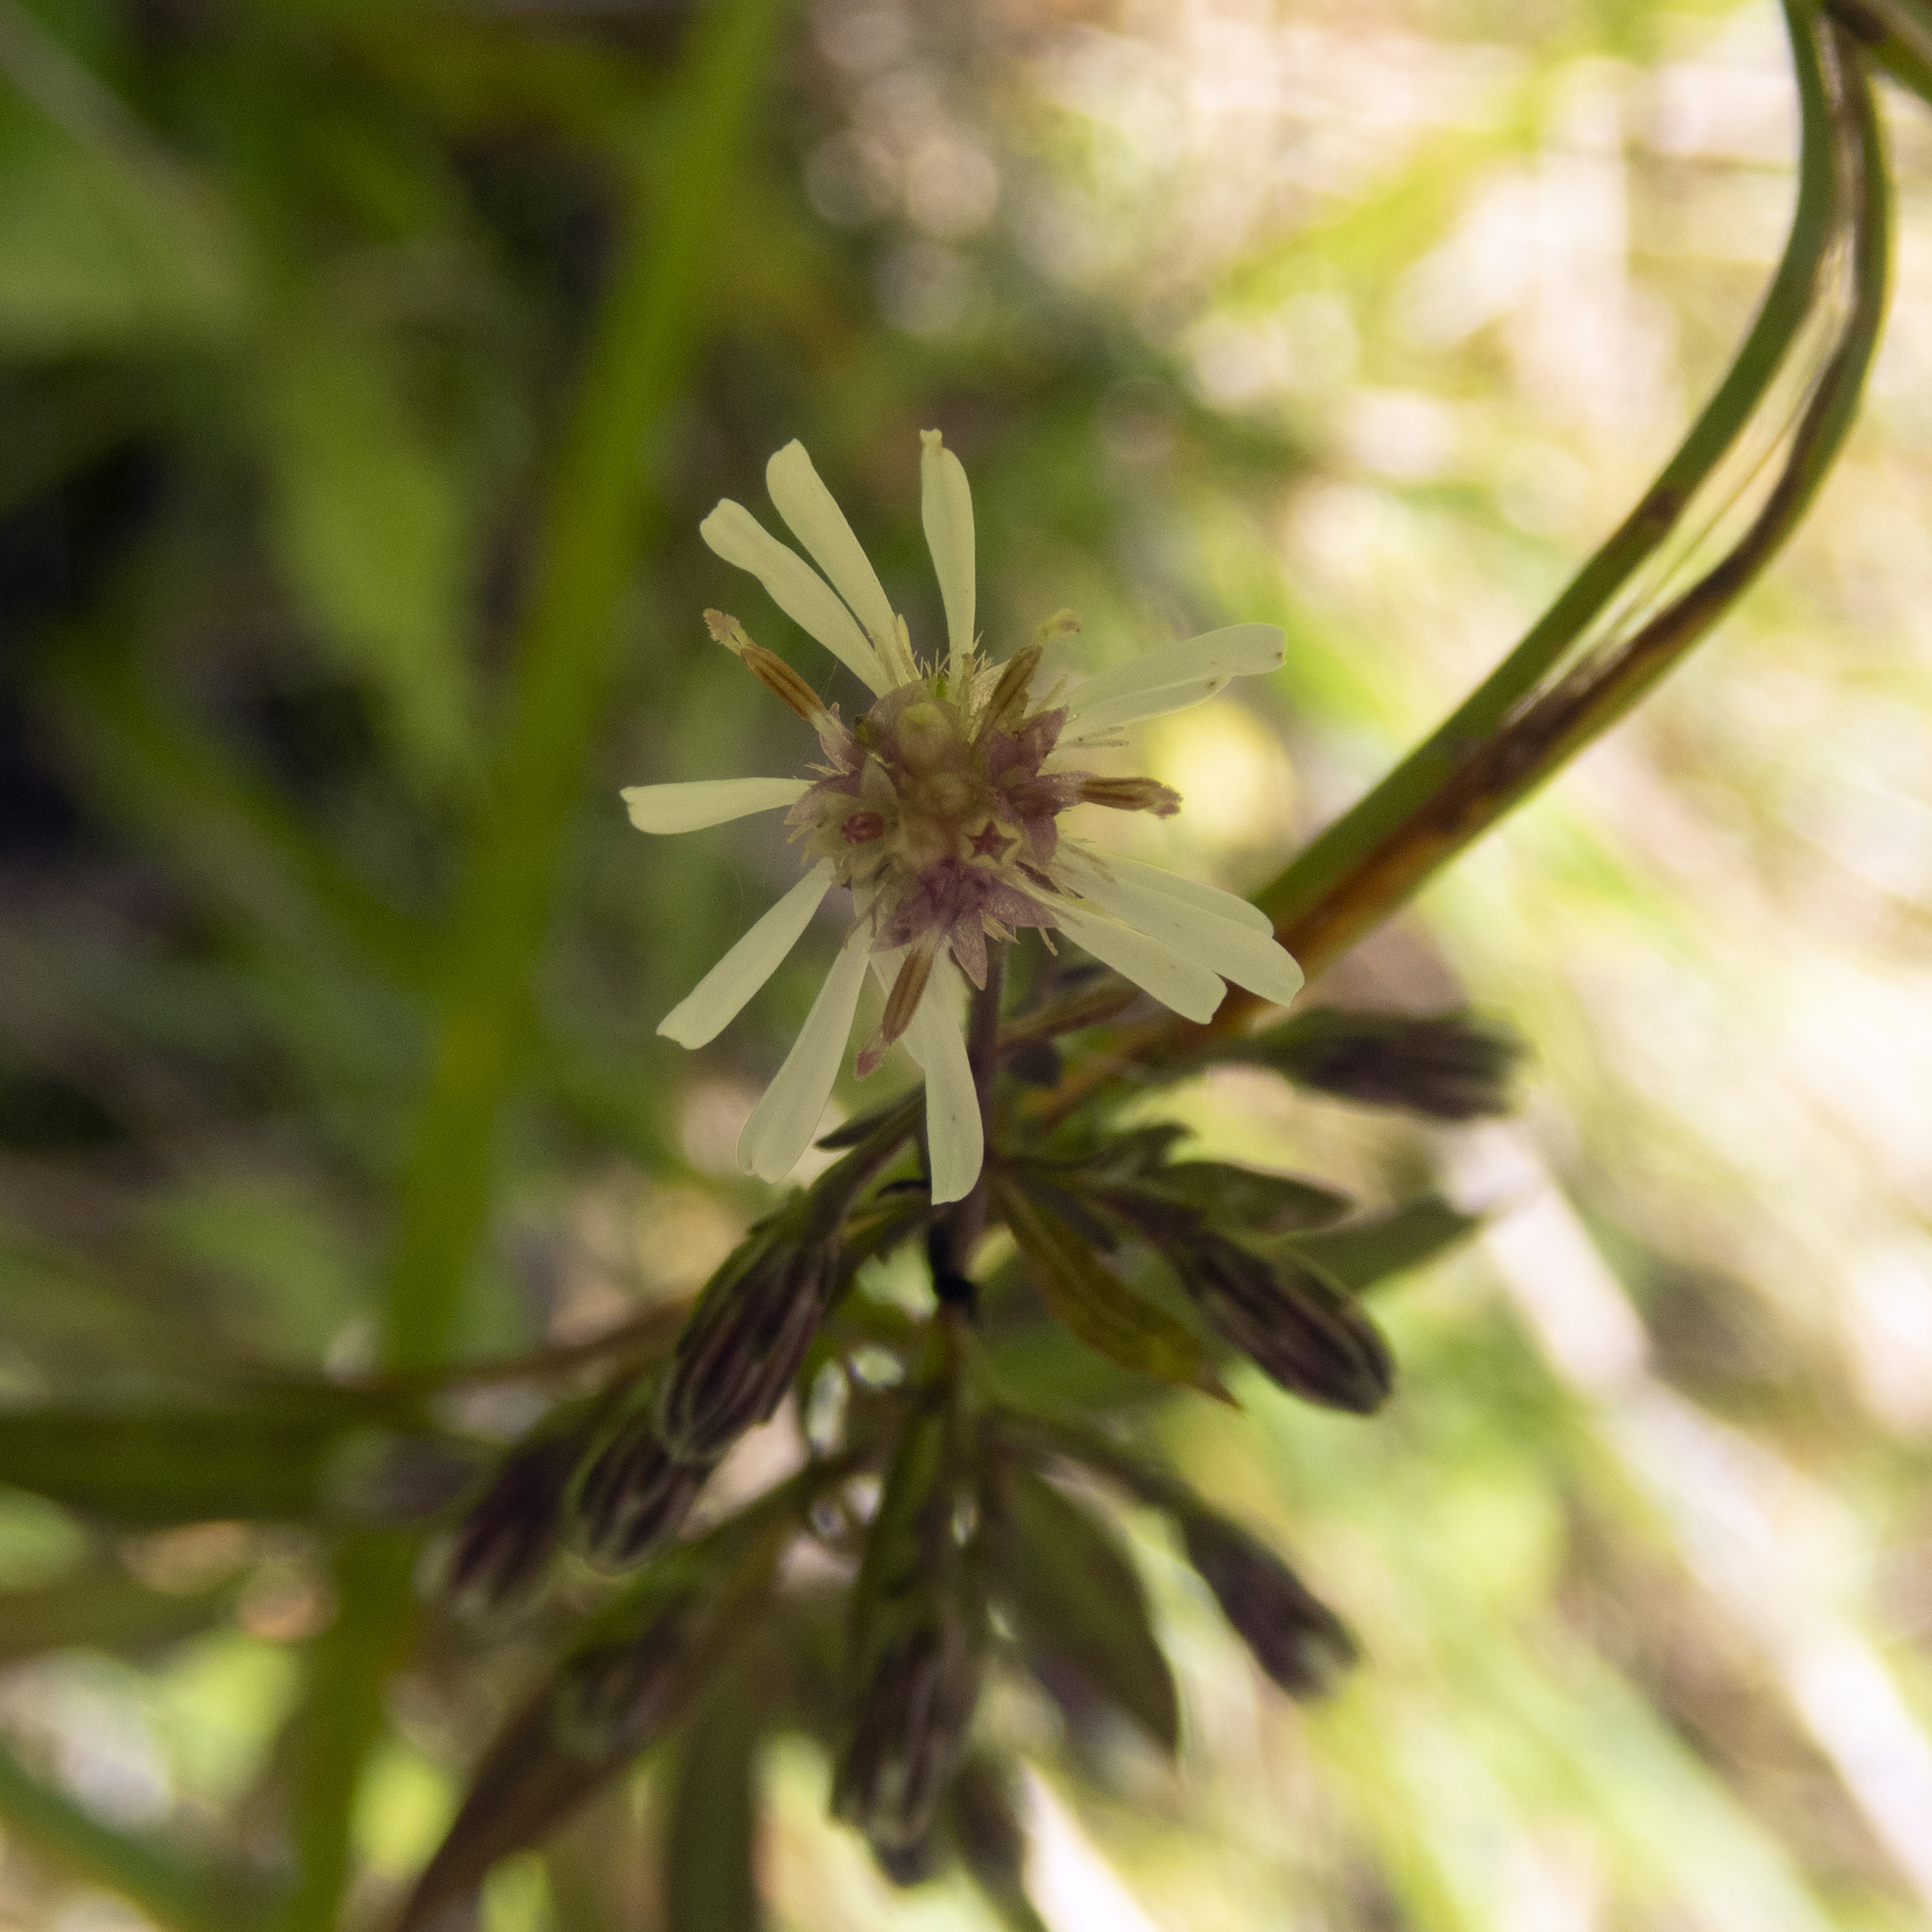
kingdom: Plantae
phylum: Tracheophyta
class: Magnoliopsida
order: Asterales
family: Asteraceae
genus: Symphyotrichum
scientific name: Symphyotrichum lateriflorum
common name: Calico aster
